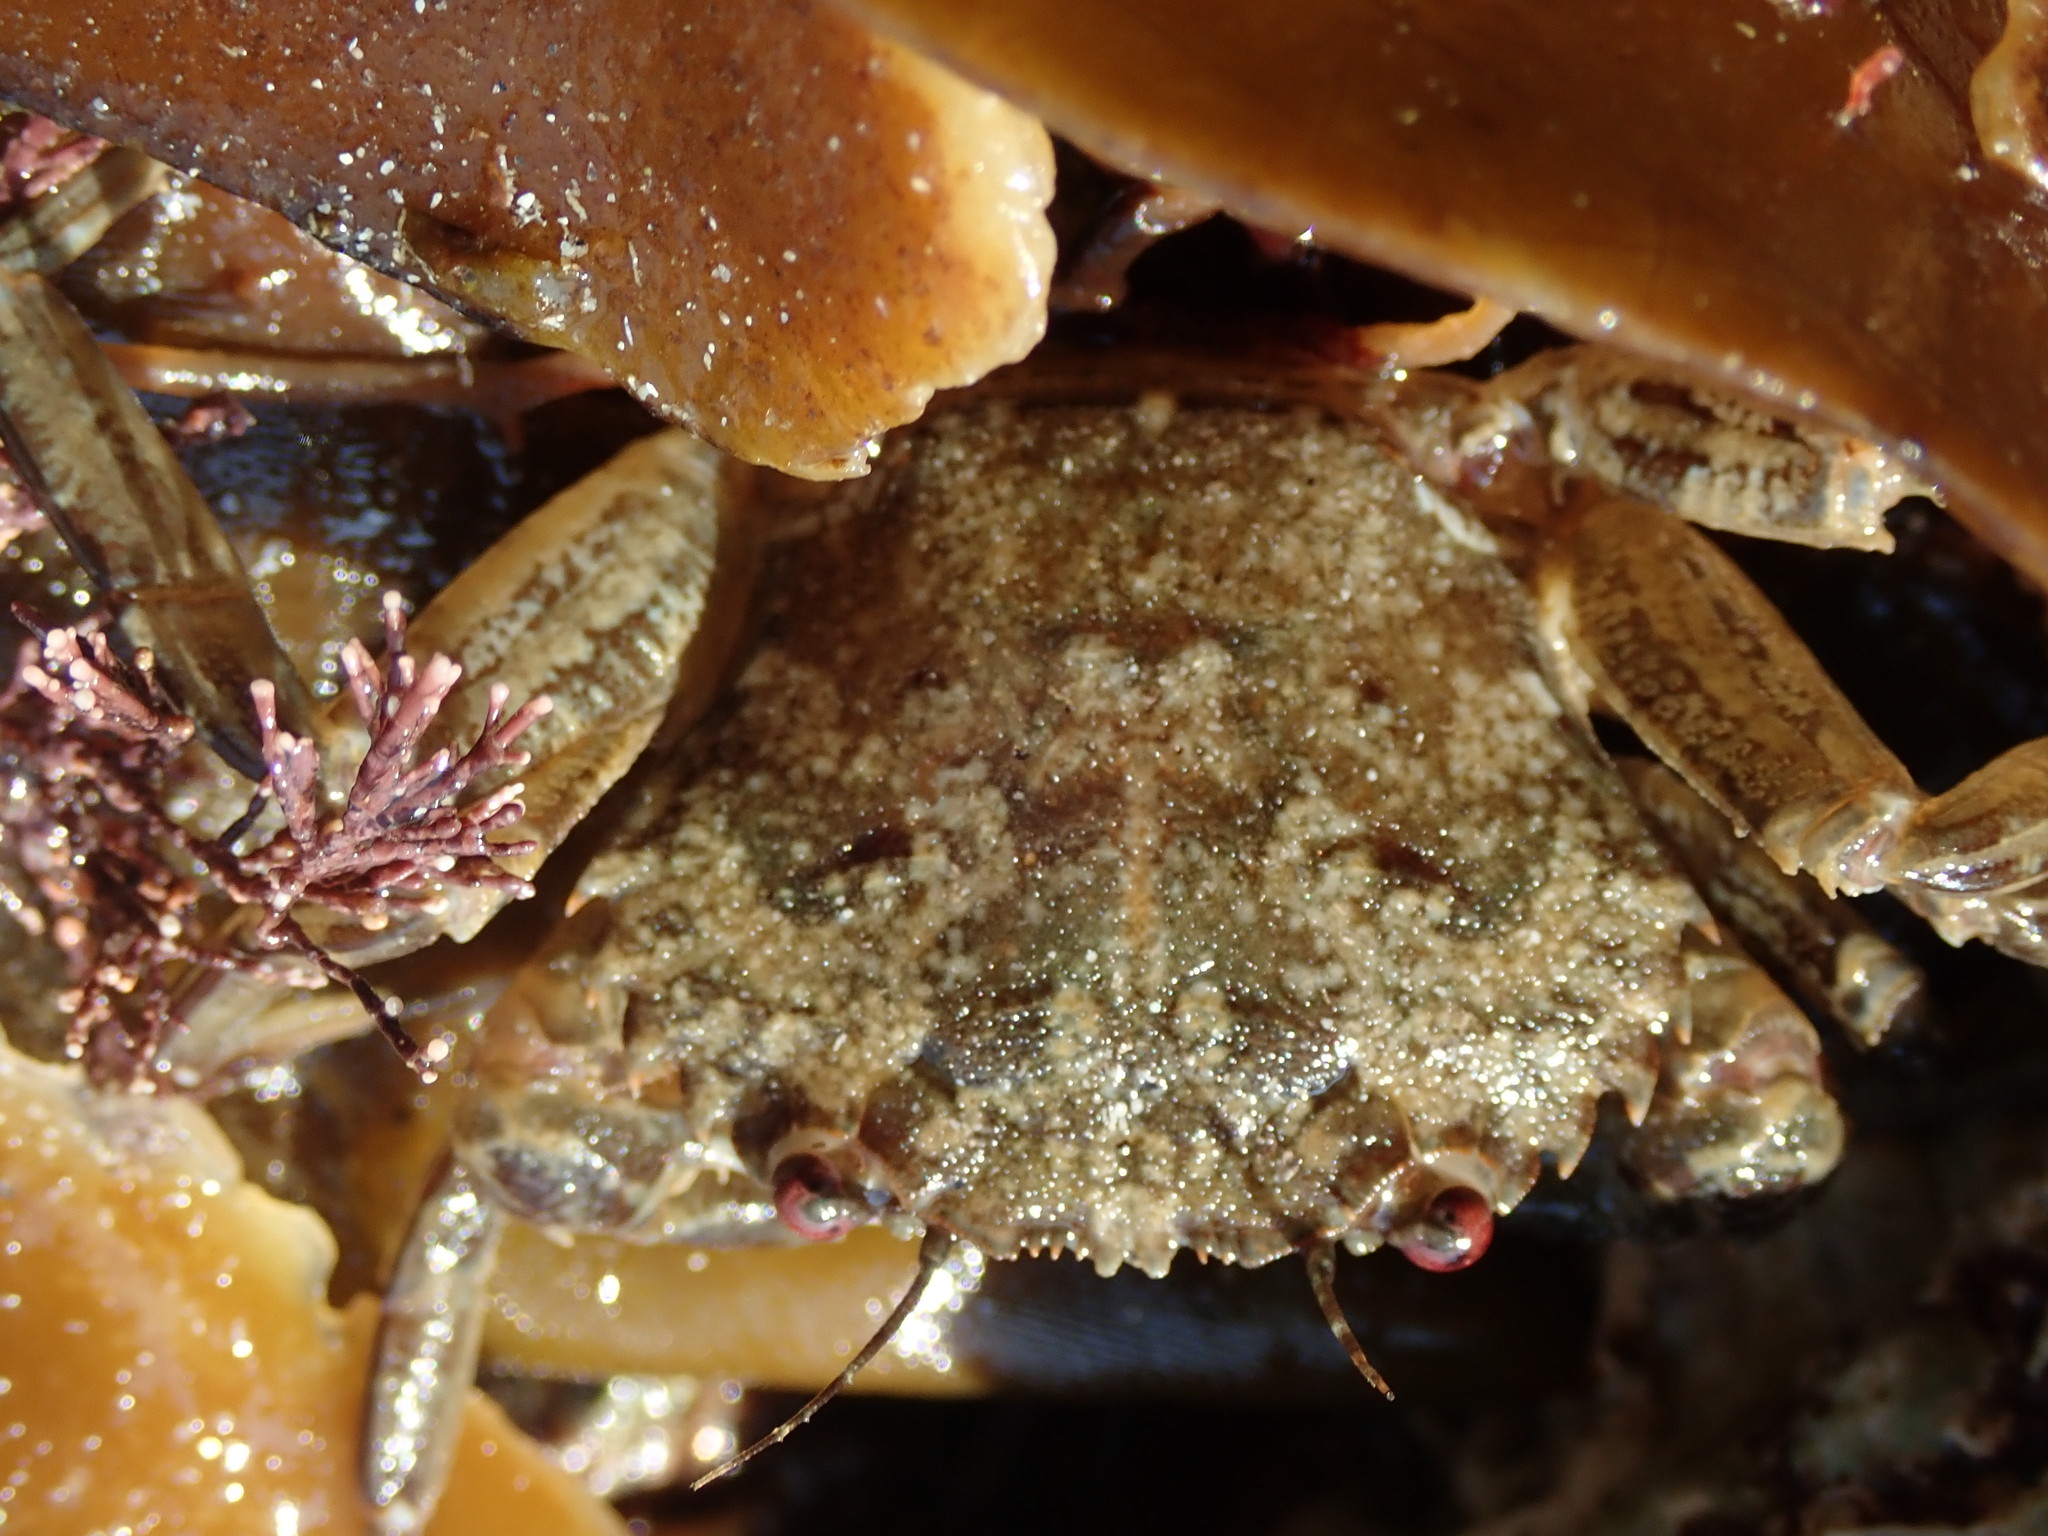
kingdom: Animalia
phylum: Arthropoda
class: Malacostraca
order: Decapoda
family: Polybiidae
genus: Necora
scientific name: Necora puber
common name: Velvet swimming crab
